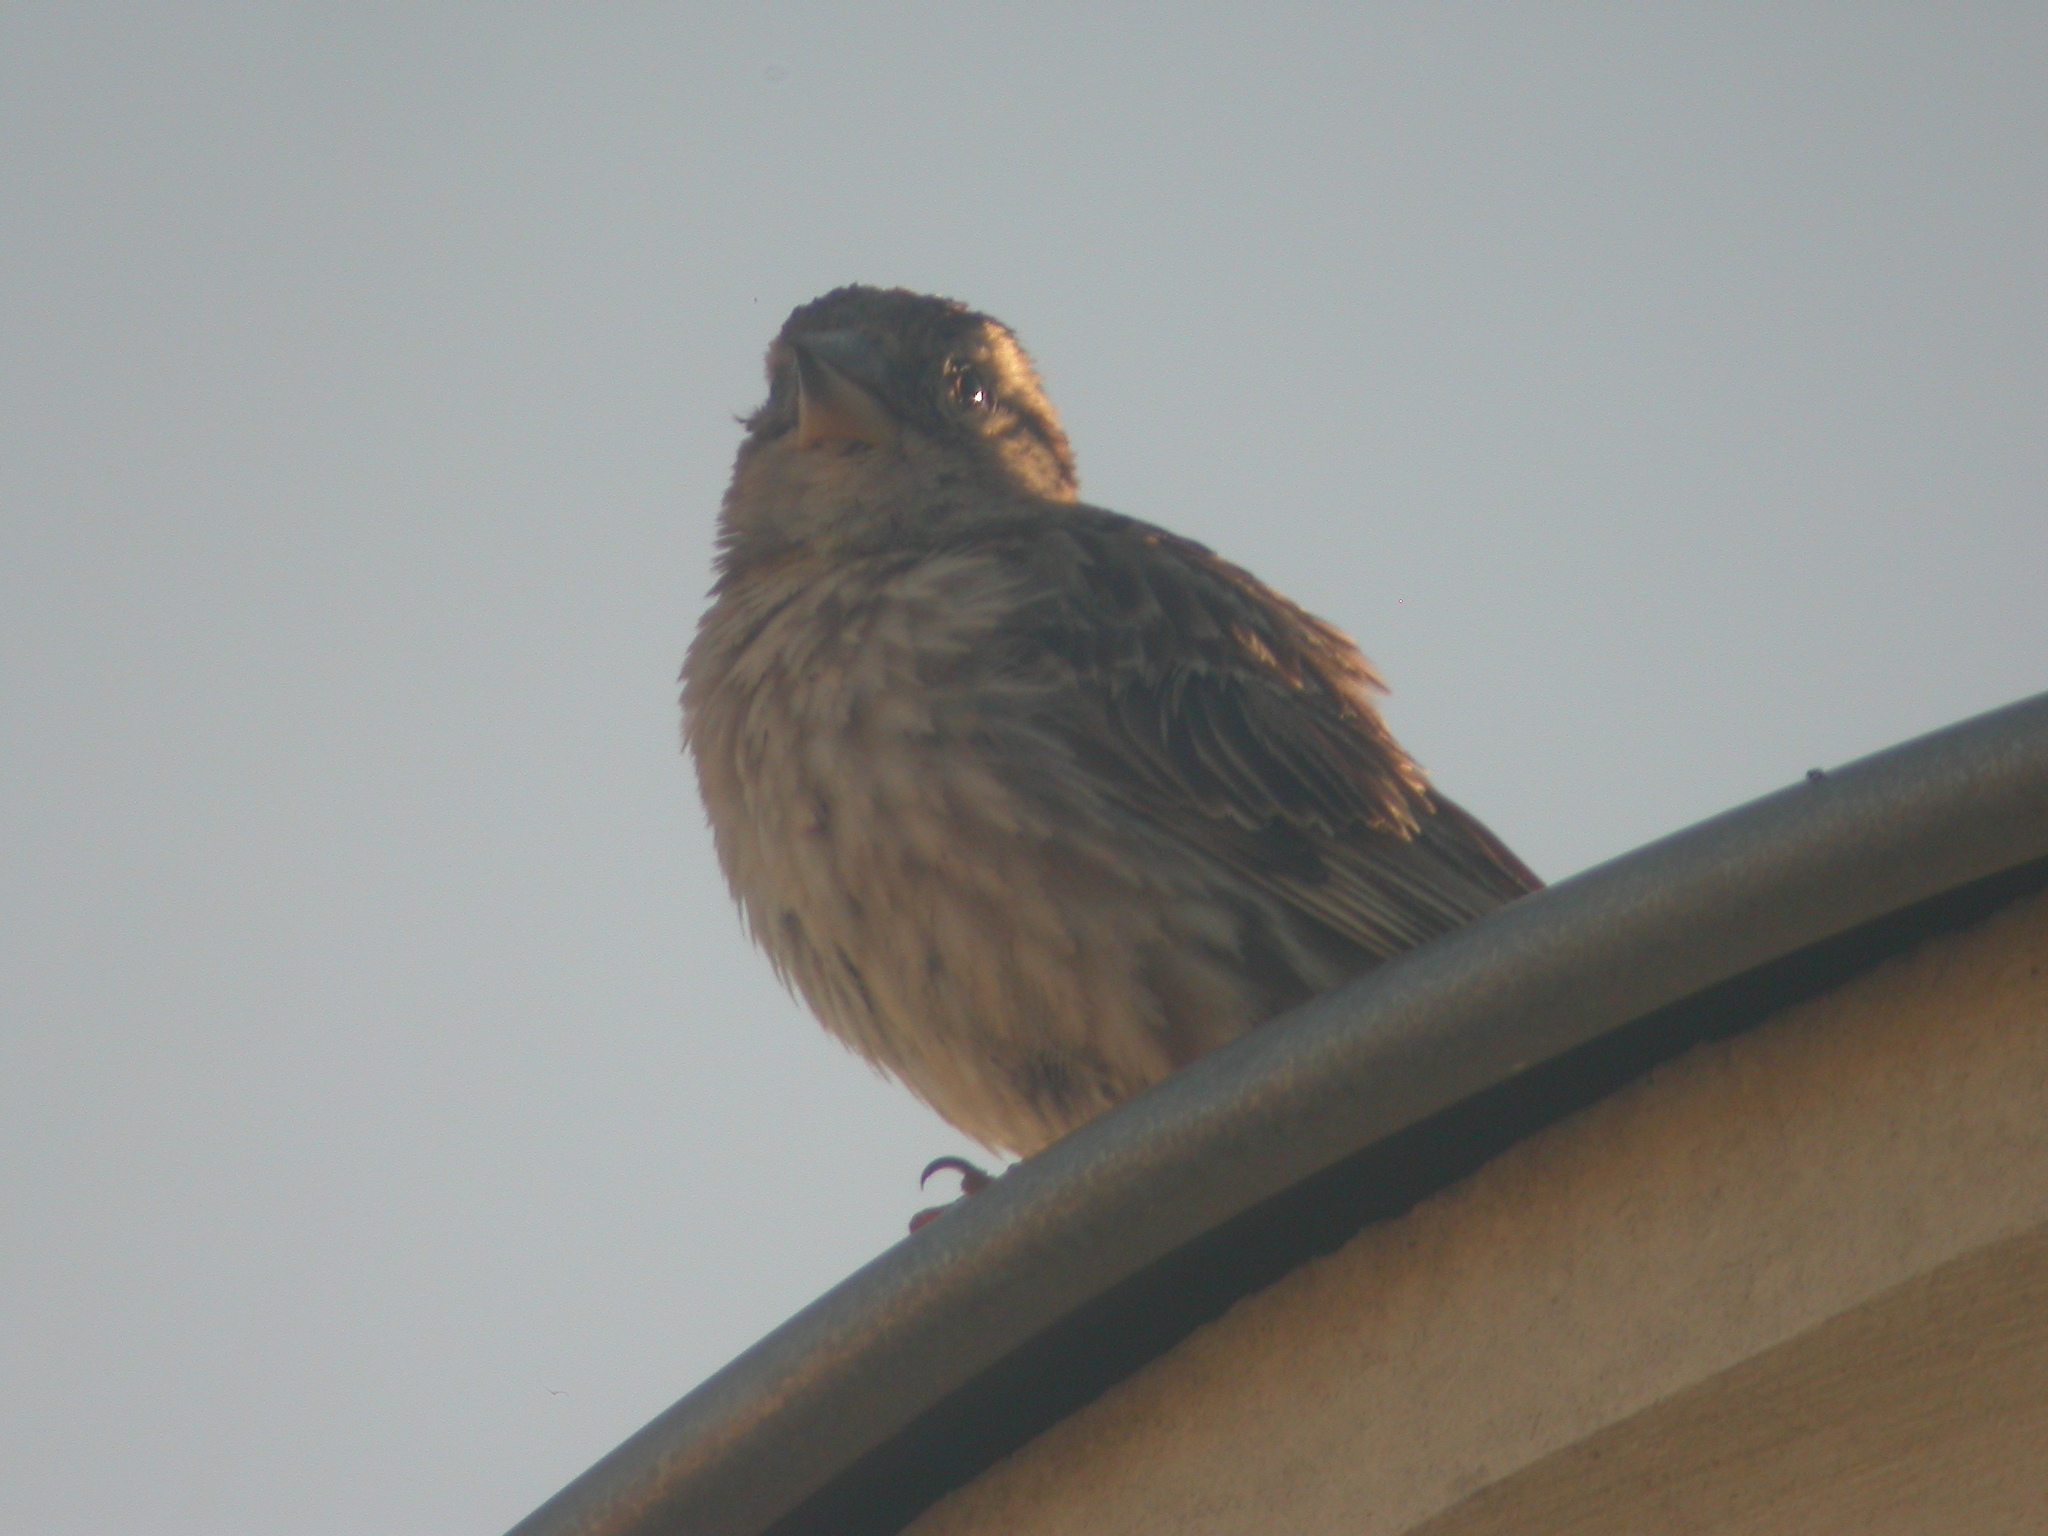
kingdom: Animalia
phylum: Chordata
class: Aves
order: Passeriformes
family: Passeridae
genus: Petronia
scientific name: Petronia petronia
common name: Rock sparrow
